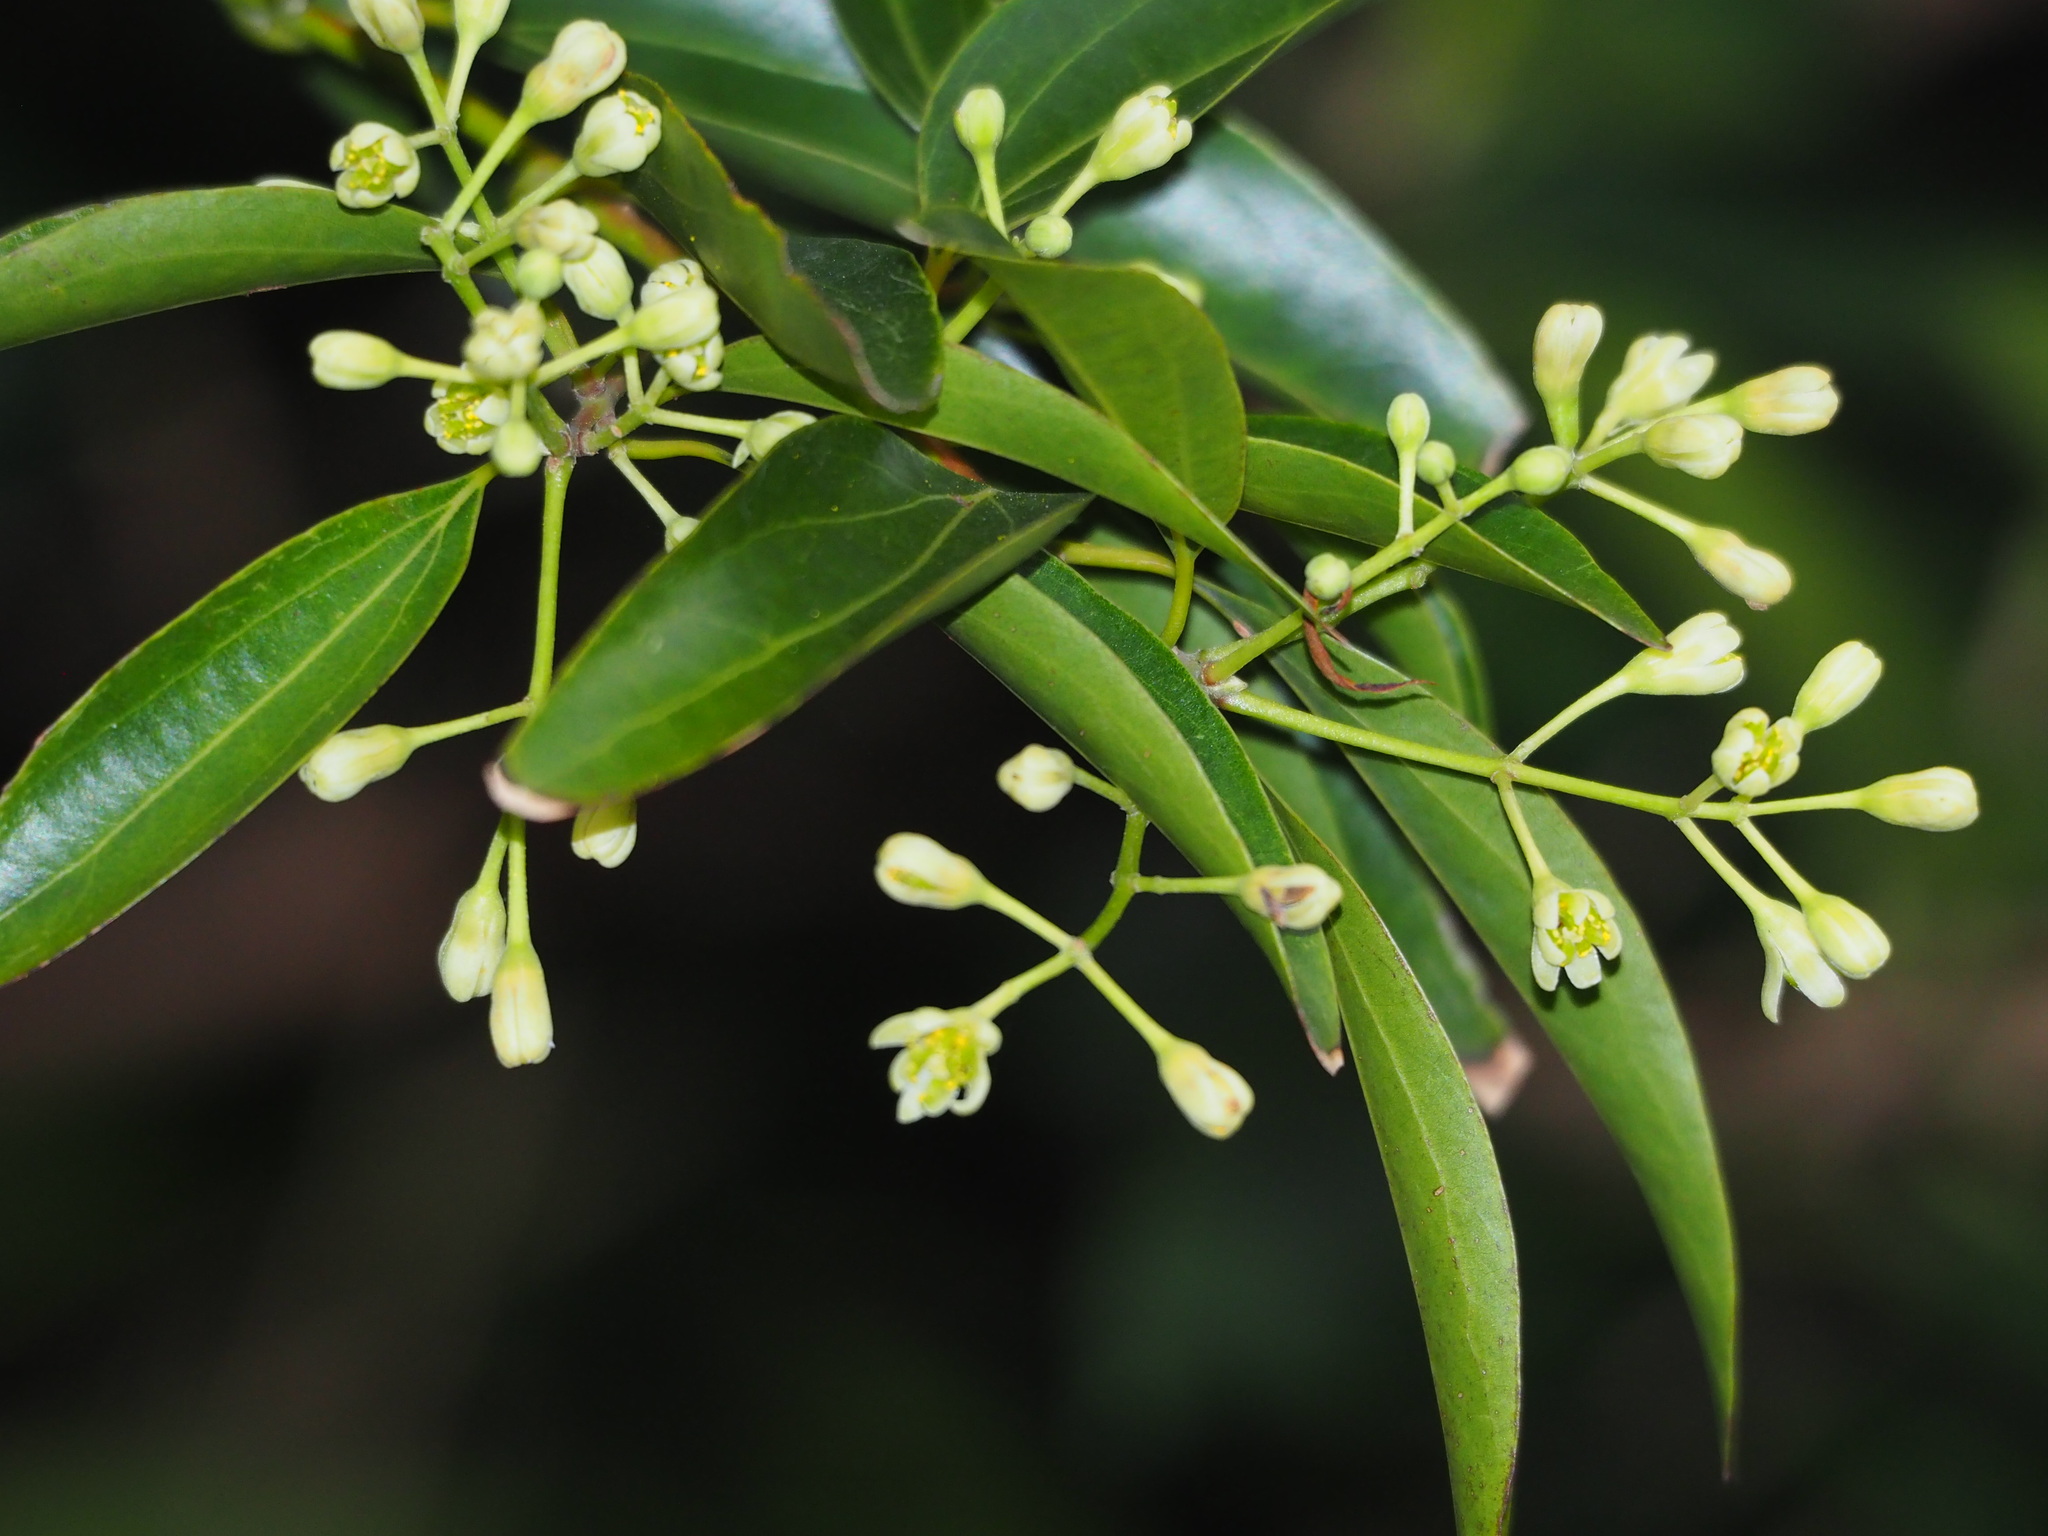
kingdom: Plantae
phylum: Tracheophyta
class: Magnoliopsida
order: Laurales
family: Lauraceae
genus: Cinnamomum
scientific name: Cinnamomum burmanni
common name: Padang cassia
